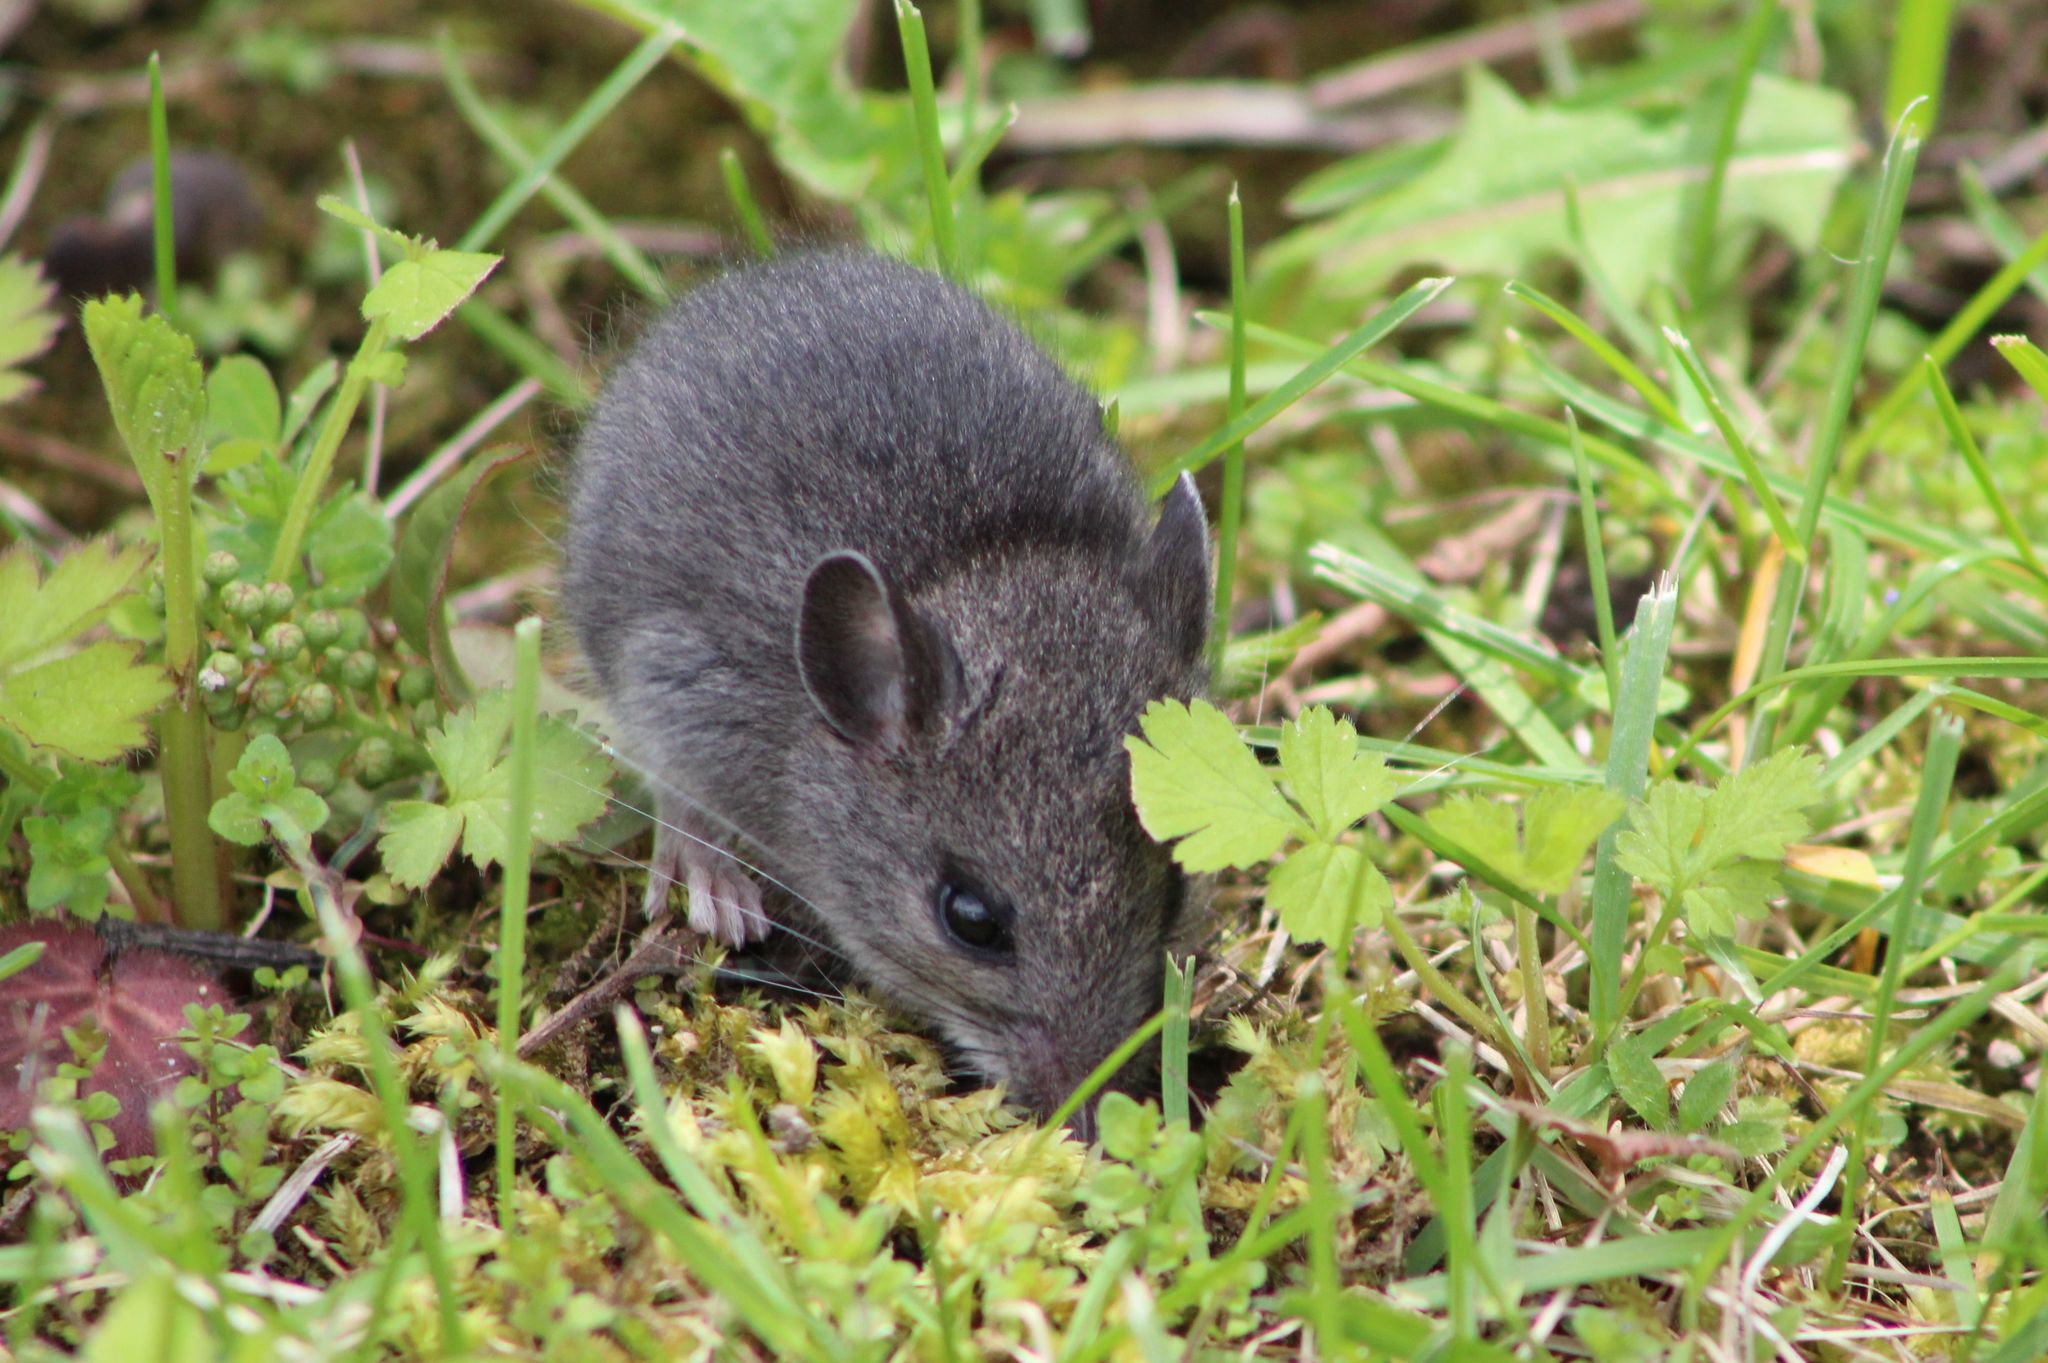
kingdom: Animalia
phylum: Chordata
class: Mammalia
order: Rodentia
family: Cricetidae
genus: Peromyscus
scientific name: Peromyscus maniculatus
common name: Deer mouse
